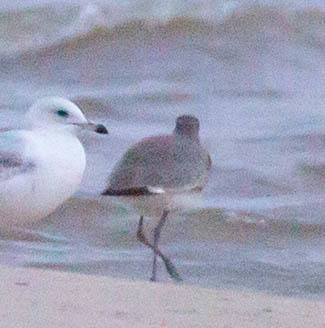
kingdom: Animalia
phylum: Chordata
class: Aves
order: Charadriiformes
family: Scolopacidae
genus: Tringa
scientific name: Tringa semipalmata
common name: Willet
